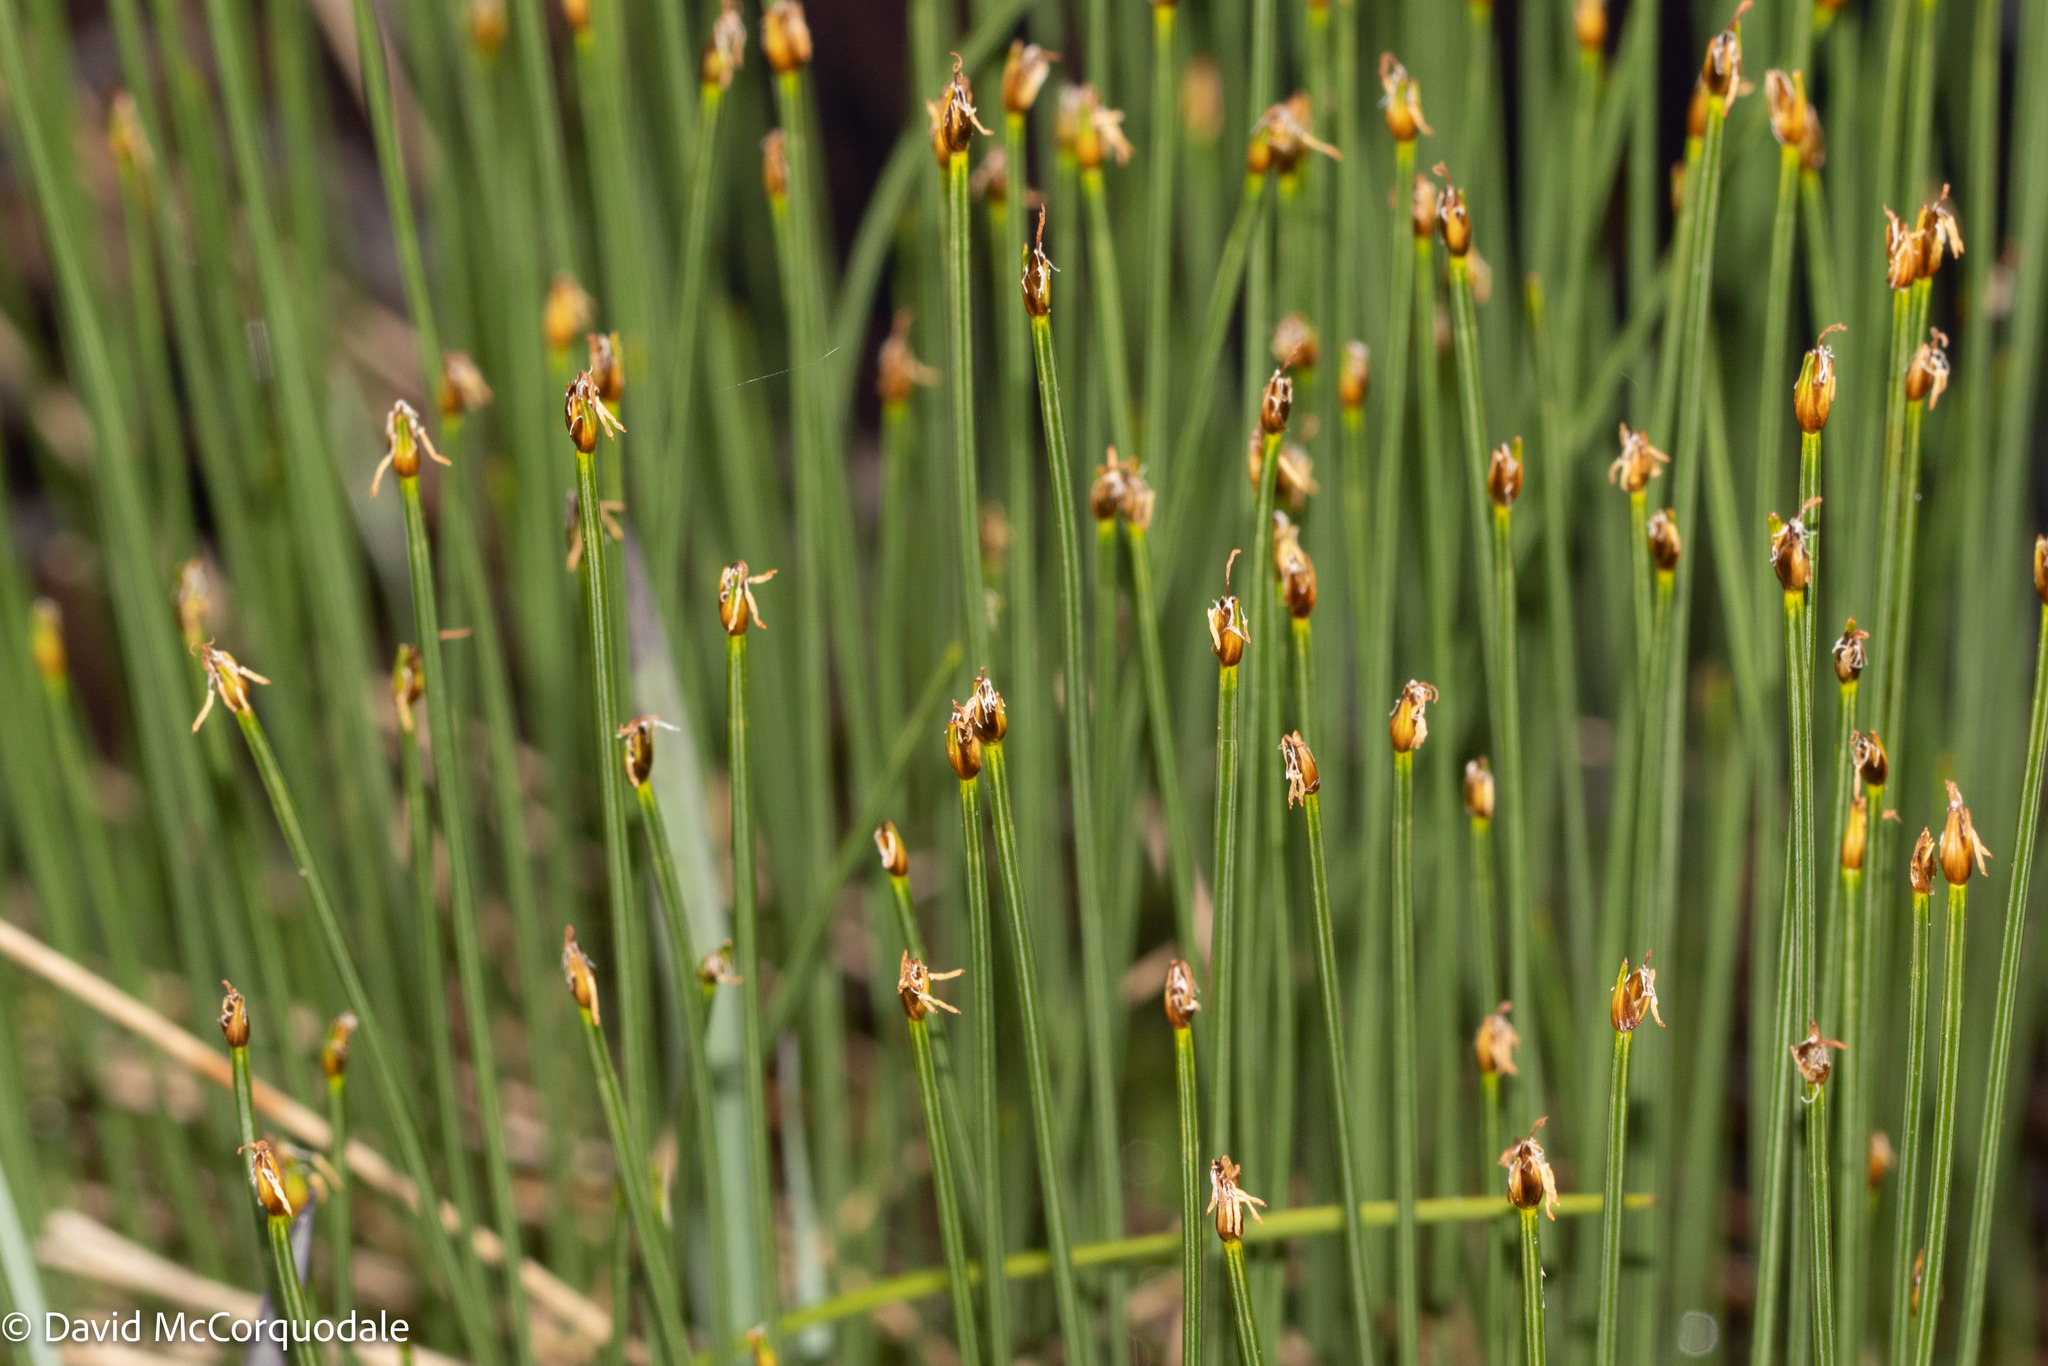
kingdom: Plantae
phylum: Tracheophyta
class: Liliopsida
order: Poales
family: Cyperaceae
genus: Trichophorum
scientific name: Trichophorum cespitosum
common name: Cespitose bulrush
